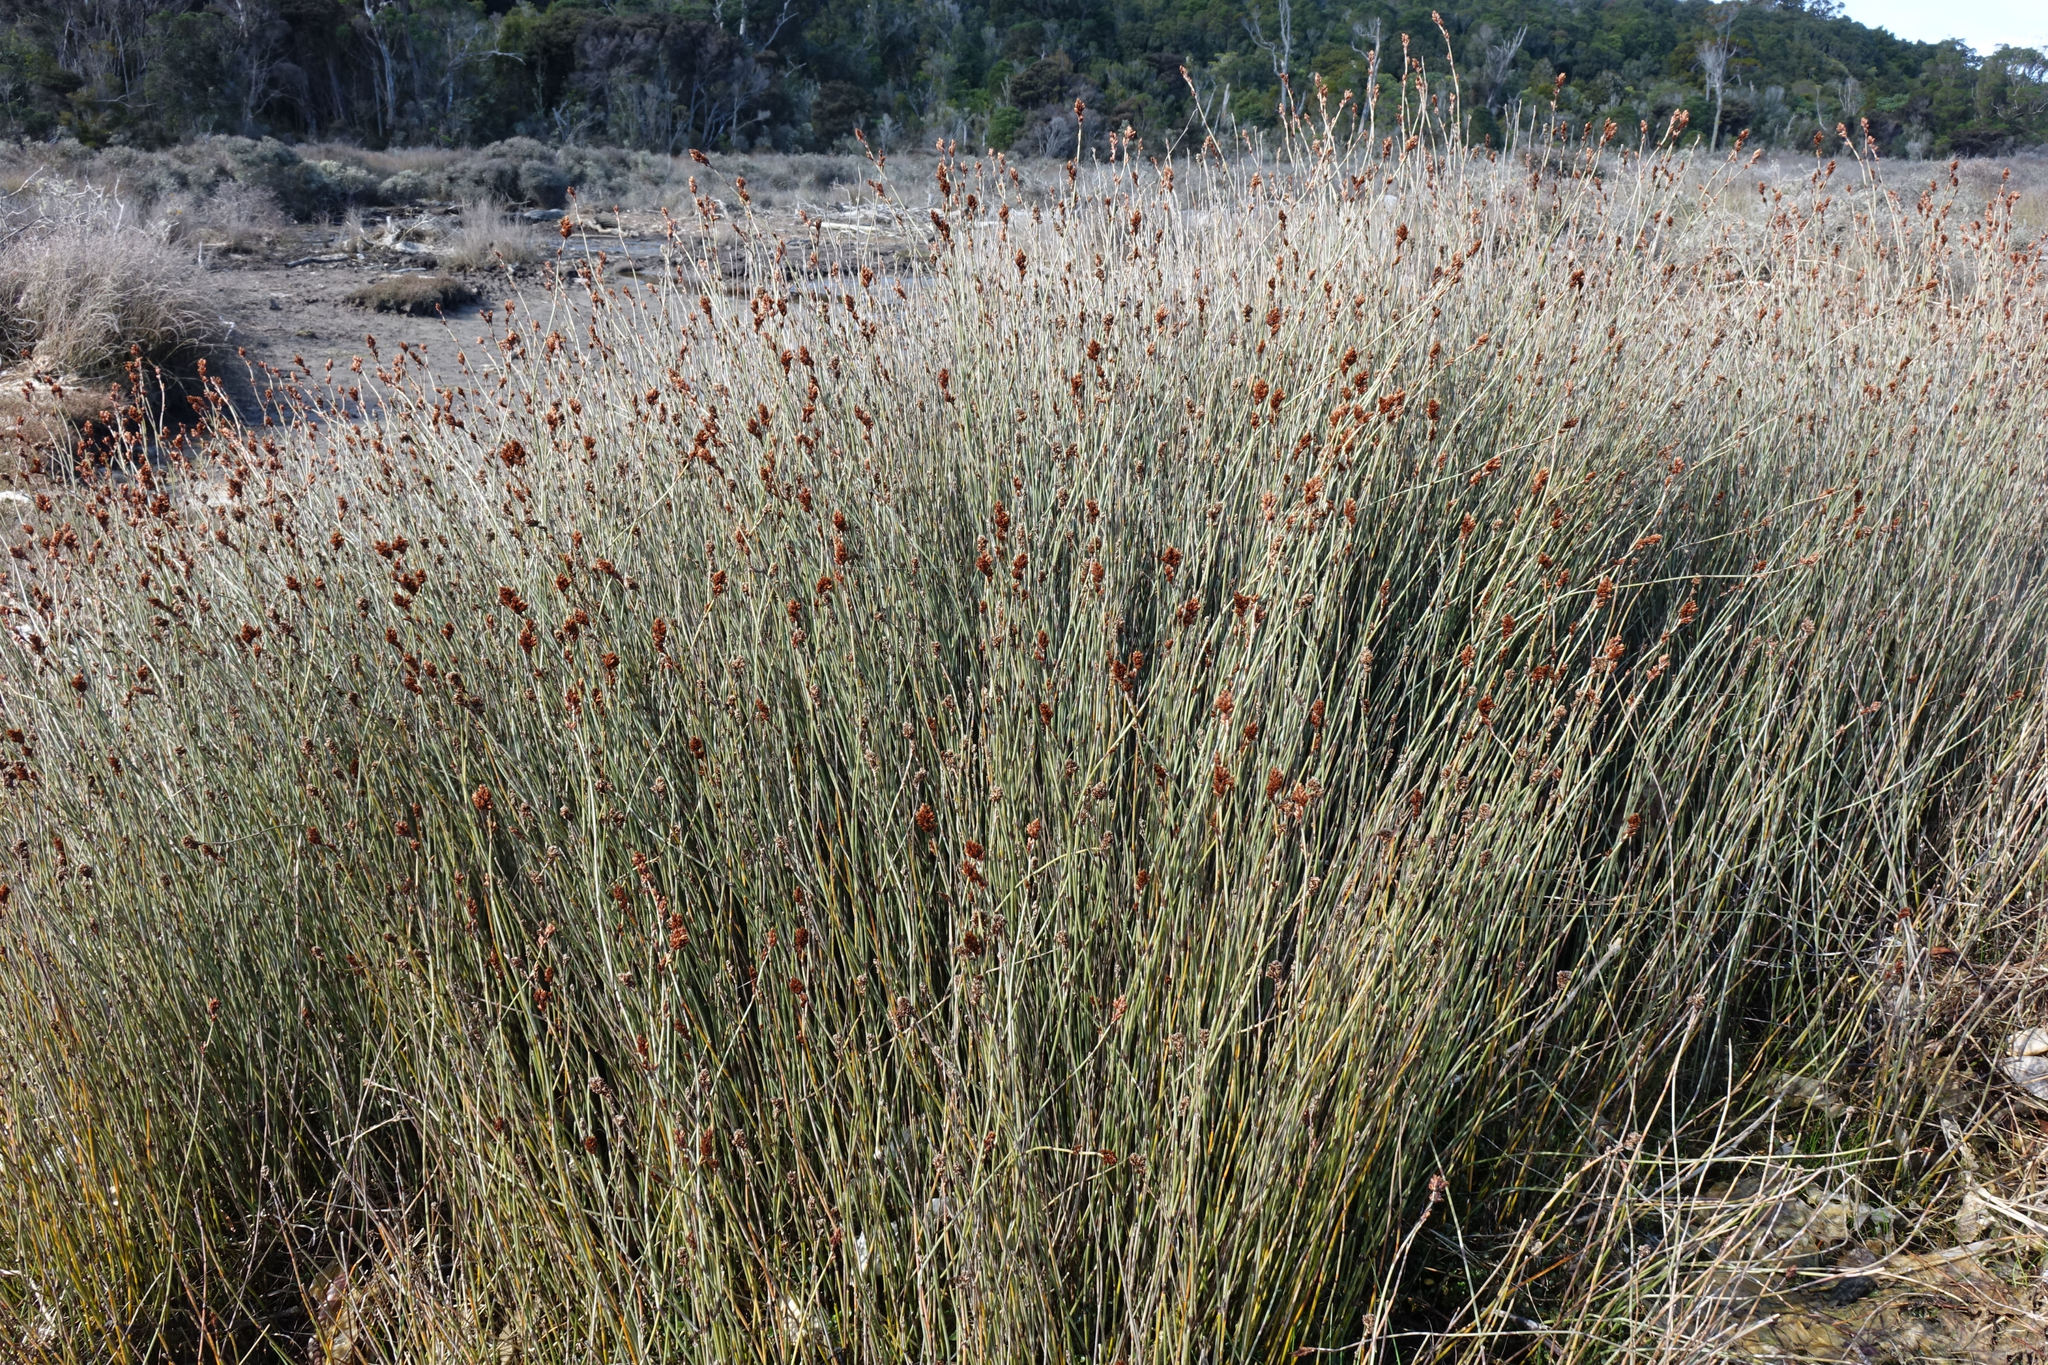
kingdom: Plantae
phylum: Tracheophyta
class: Liliopsida
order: Poales
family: Restionaceae
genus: Apodasmia
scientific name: Apodasmia similis
